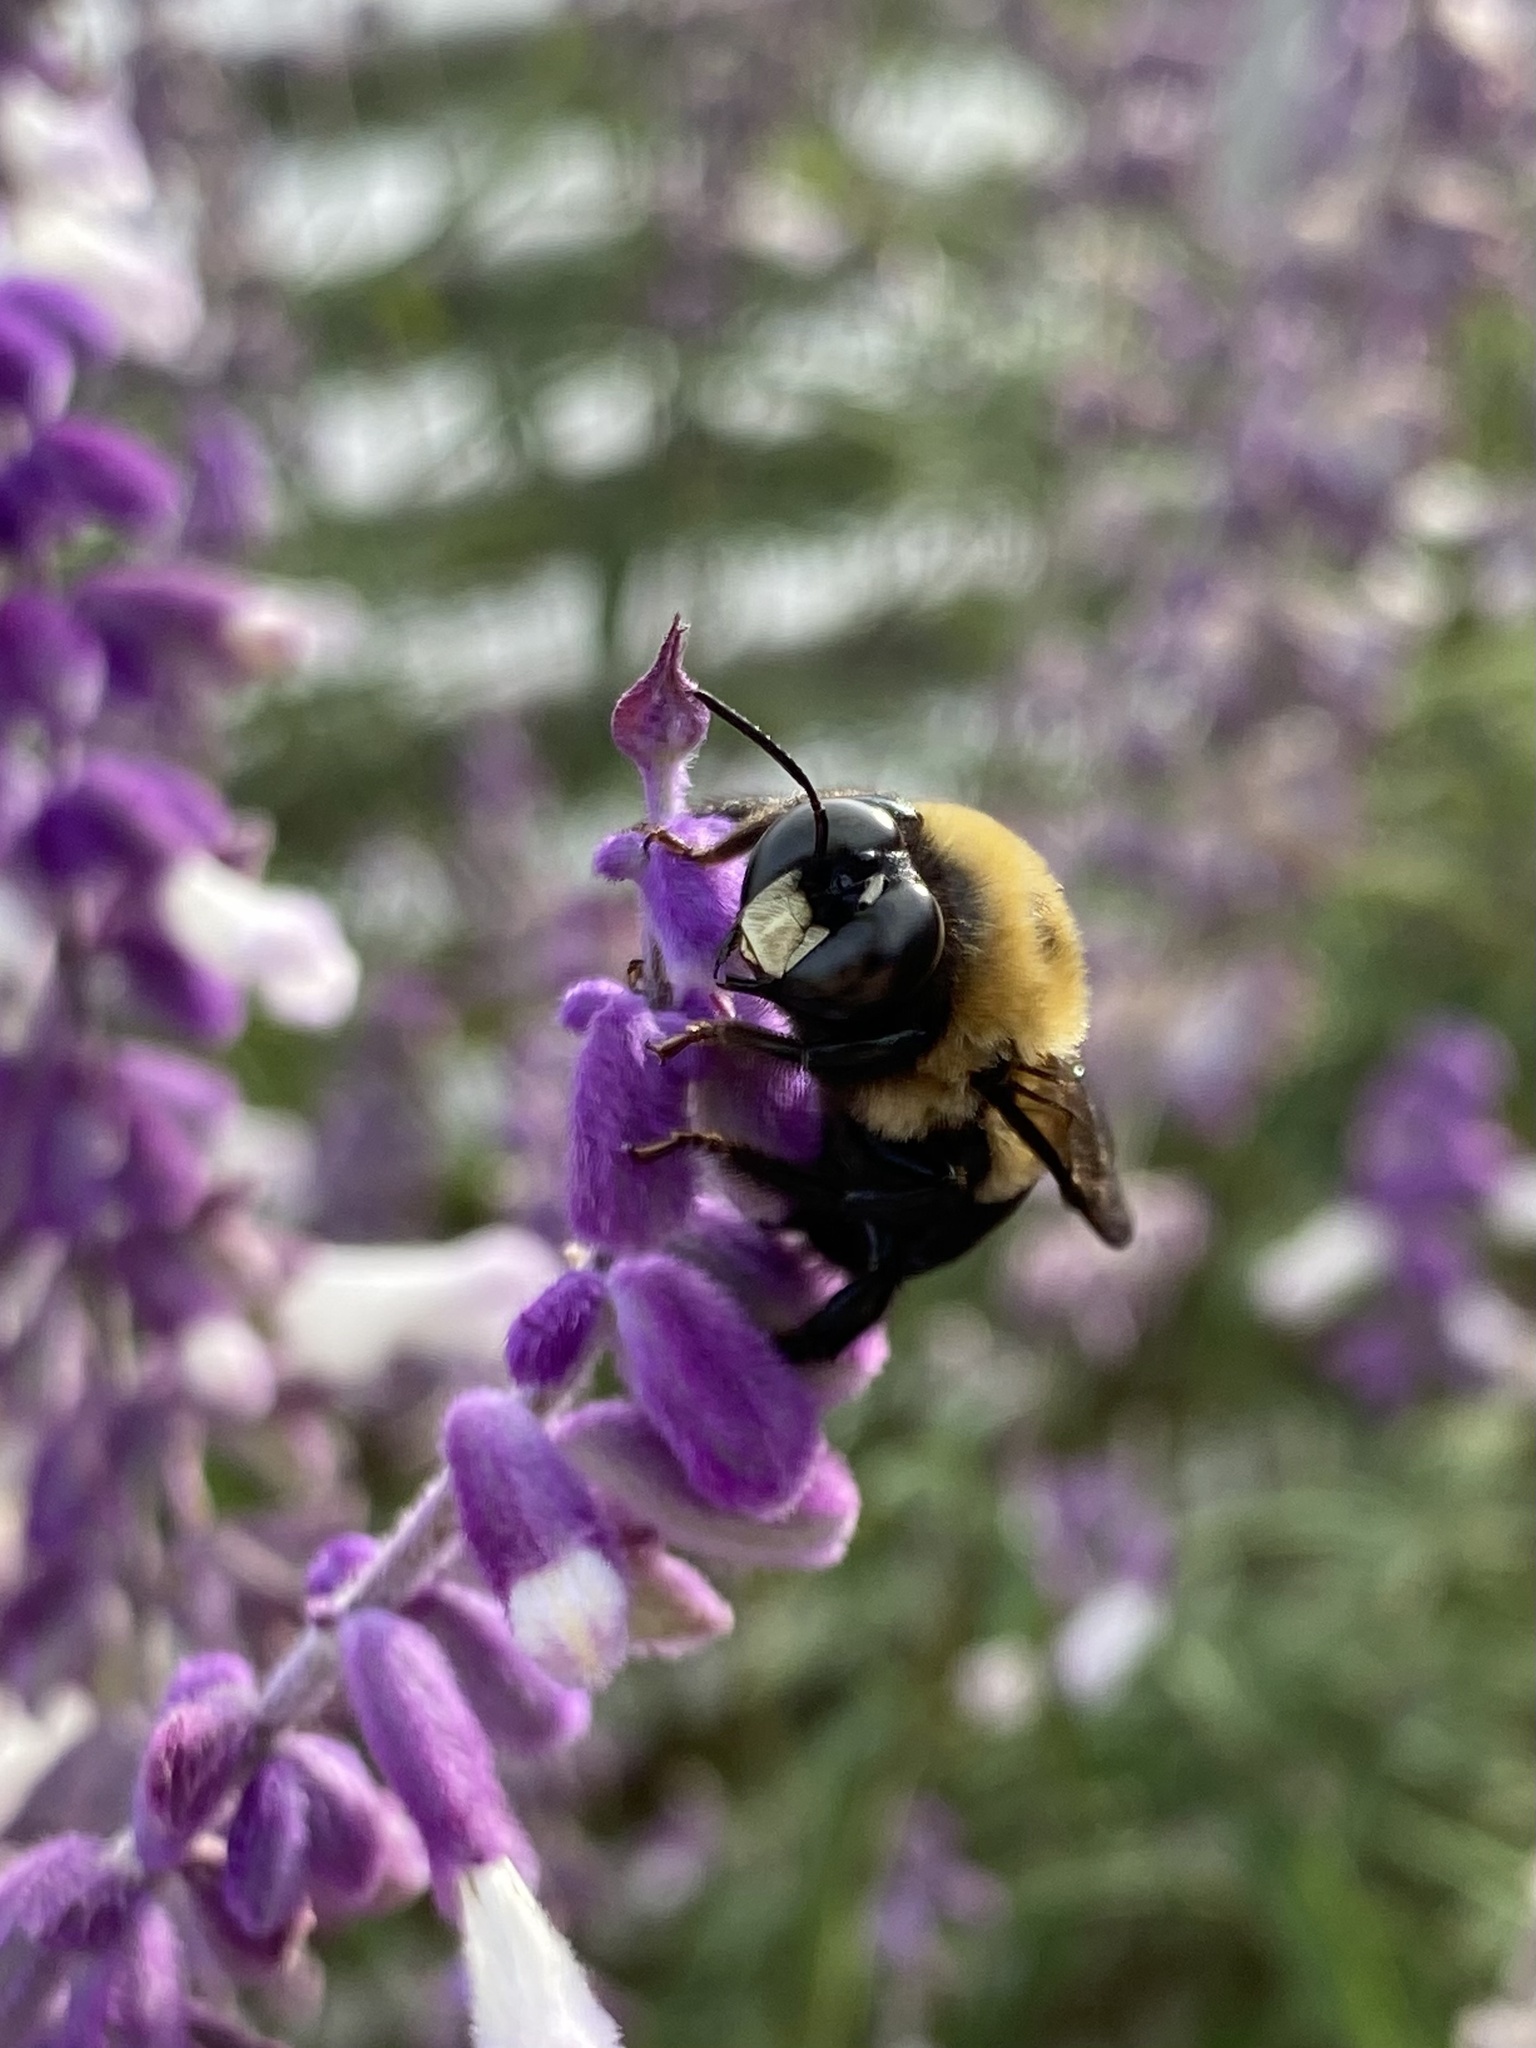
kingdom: Animalia
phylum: Arthropoda
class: Insecta
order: Hymenoptera
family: Apidae
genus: Xylocopa
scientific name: Xylocopa virginica
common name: Carpenter bee
